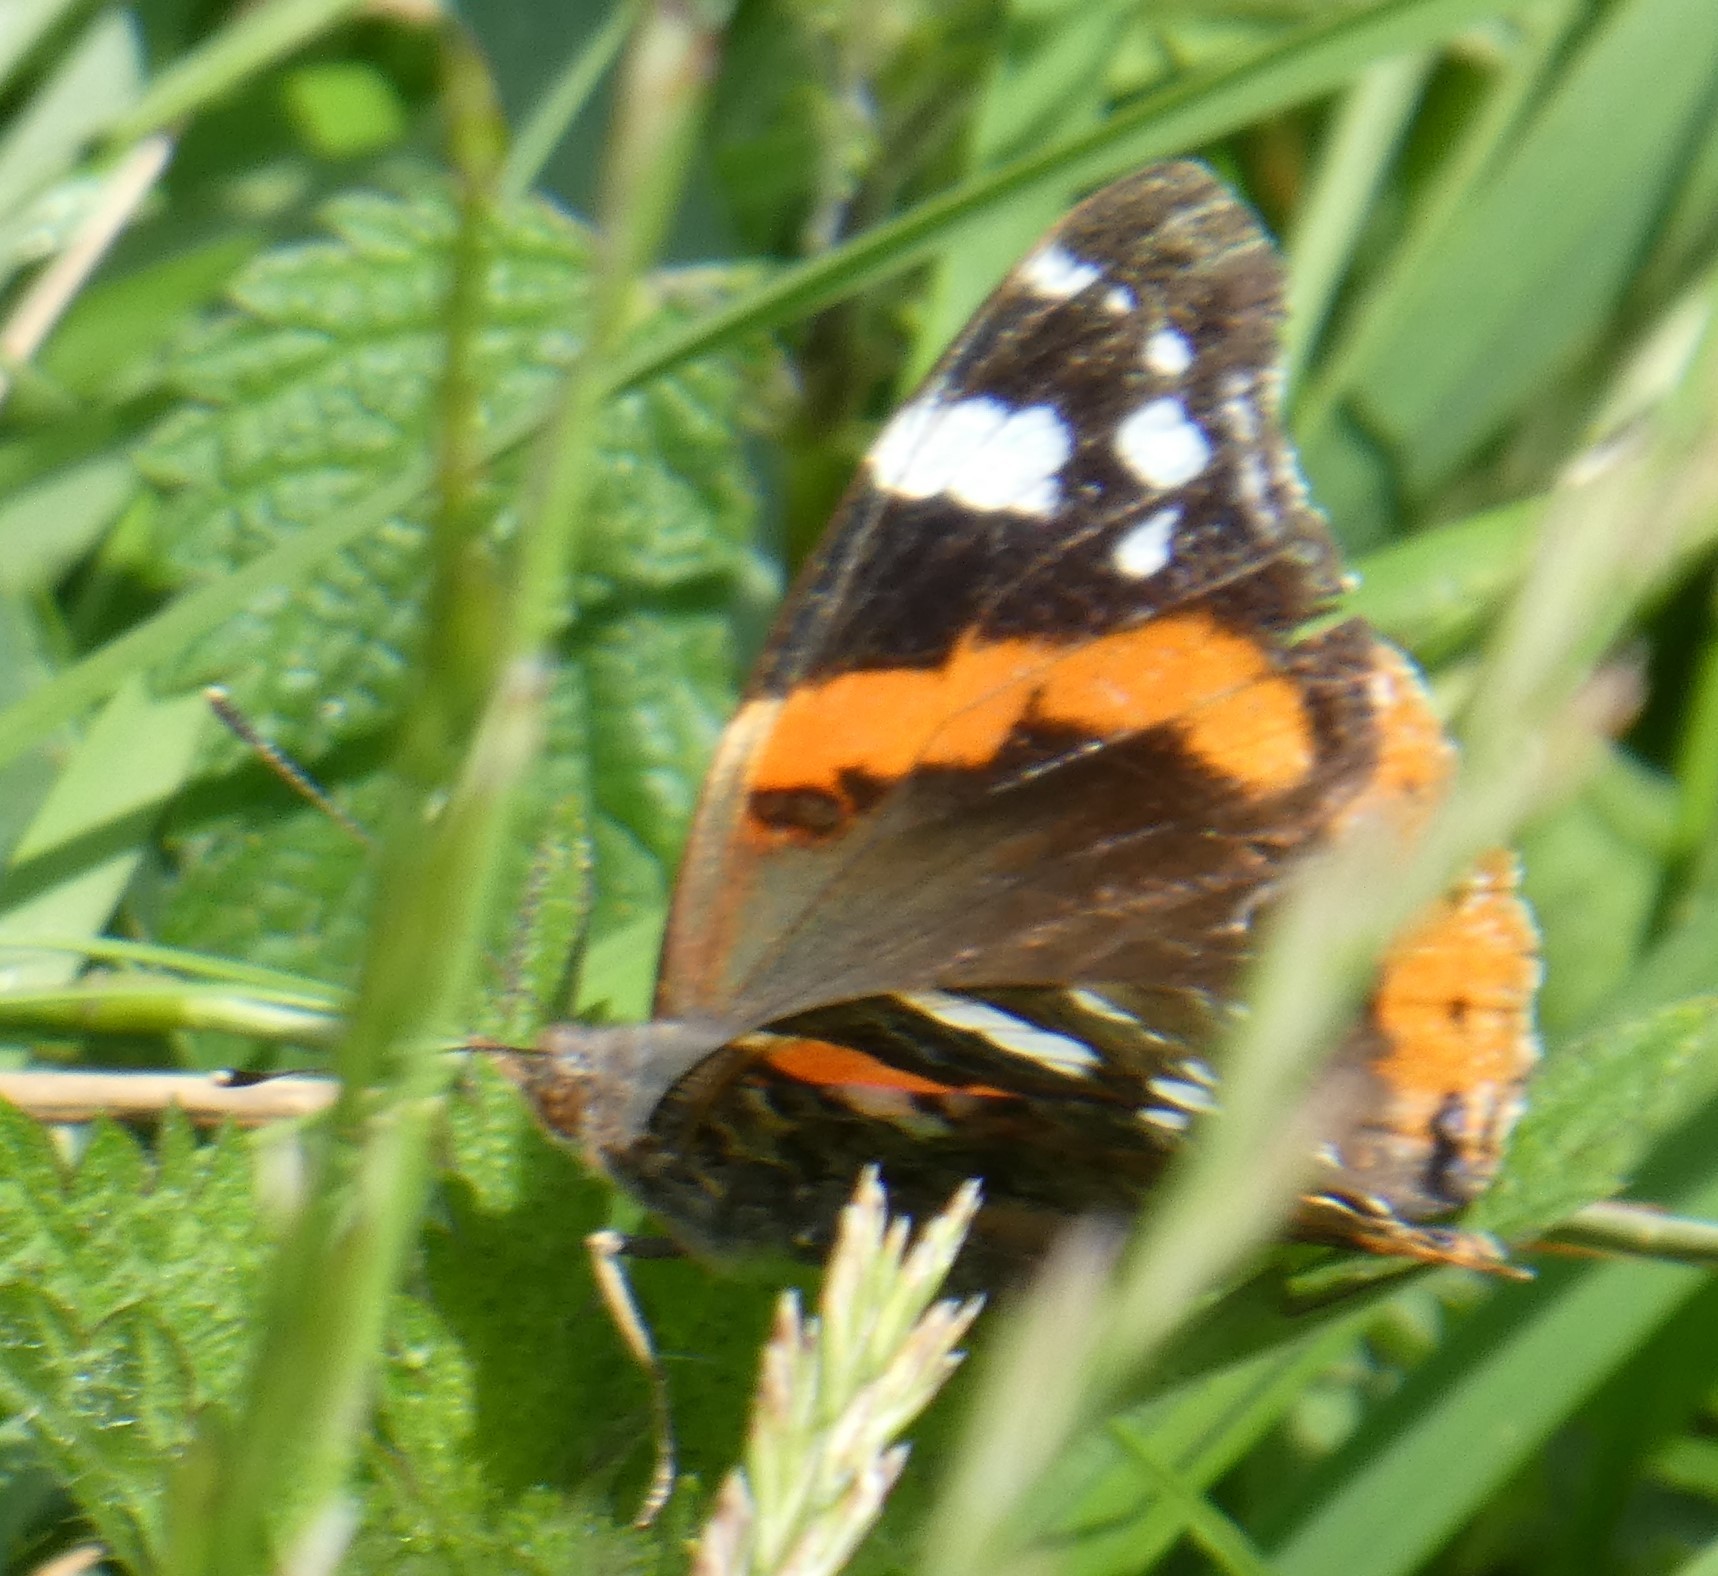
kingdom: Animalia
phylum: Arthropoda
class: Insecta
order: Lepidoptera
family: Nymphalidae
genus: Vanessa
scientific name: Vanessa atalanta
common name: Red admiral
